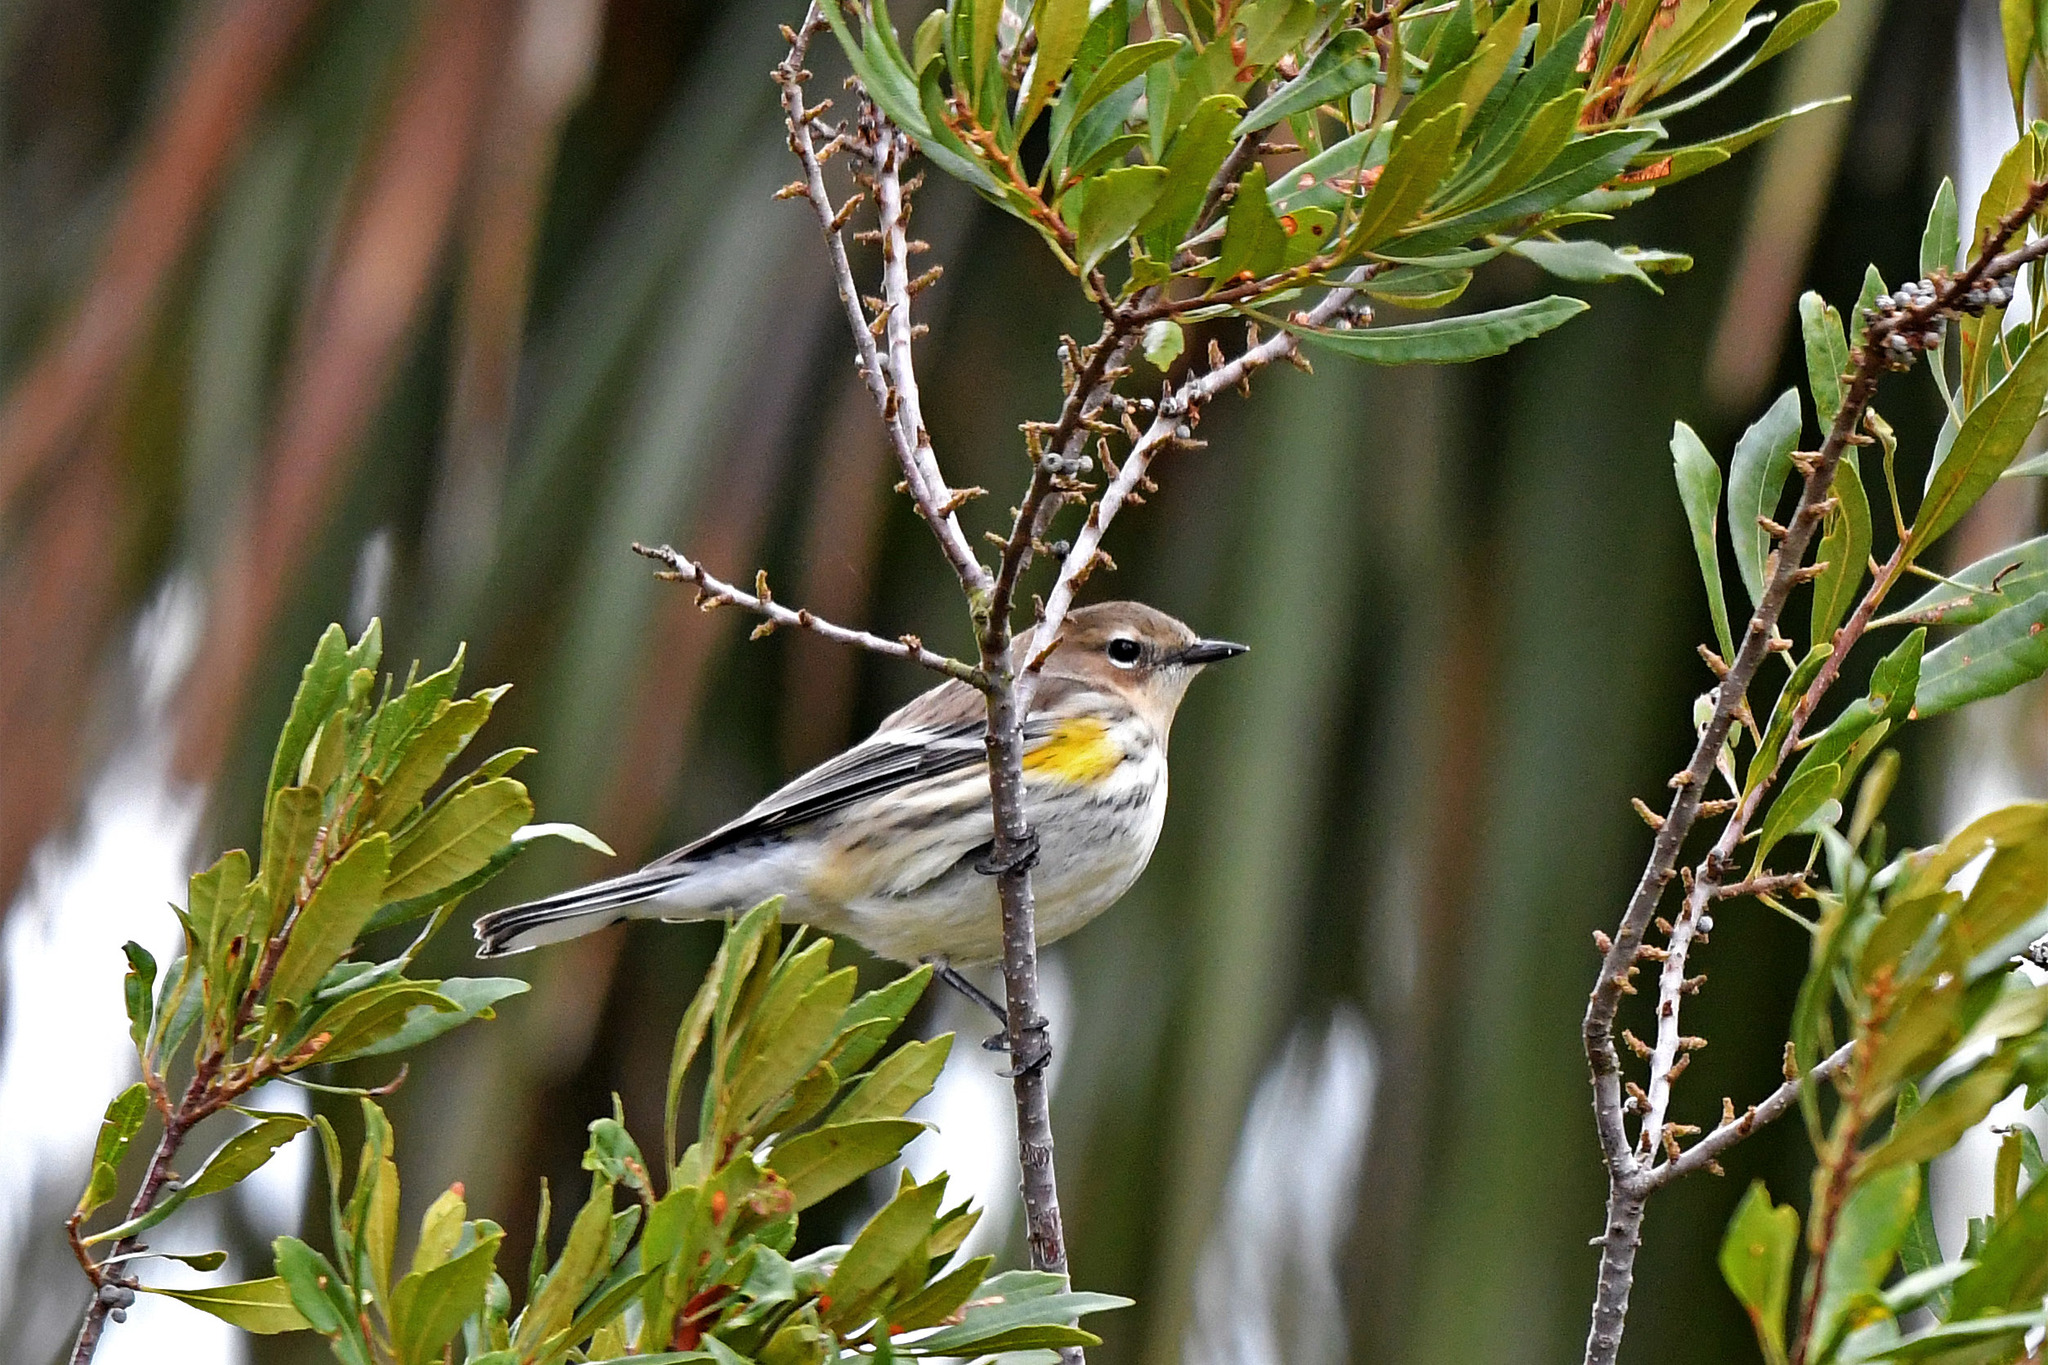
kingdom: Animalia
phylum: Chordata
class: Aves
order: Passeriformes
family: Parulidae
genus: Setophaga
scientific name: Setophaga coronata
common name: Myrtle warbler
